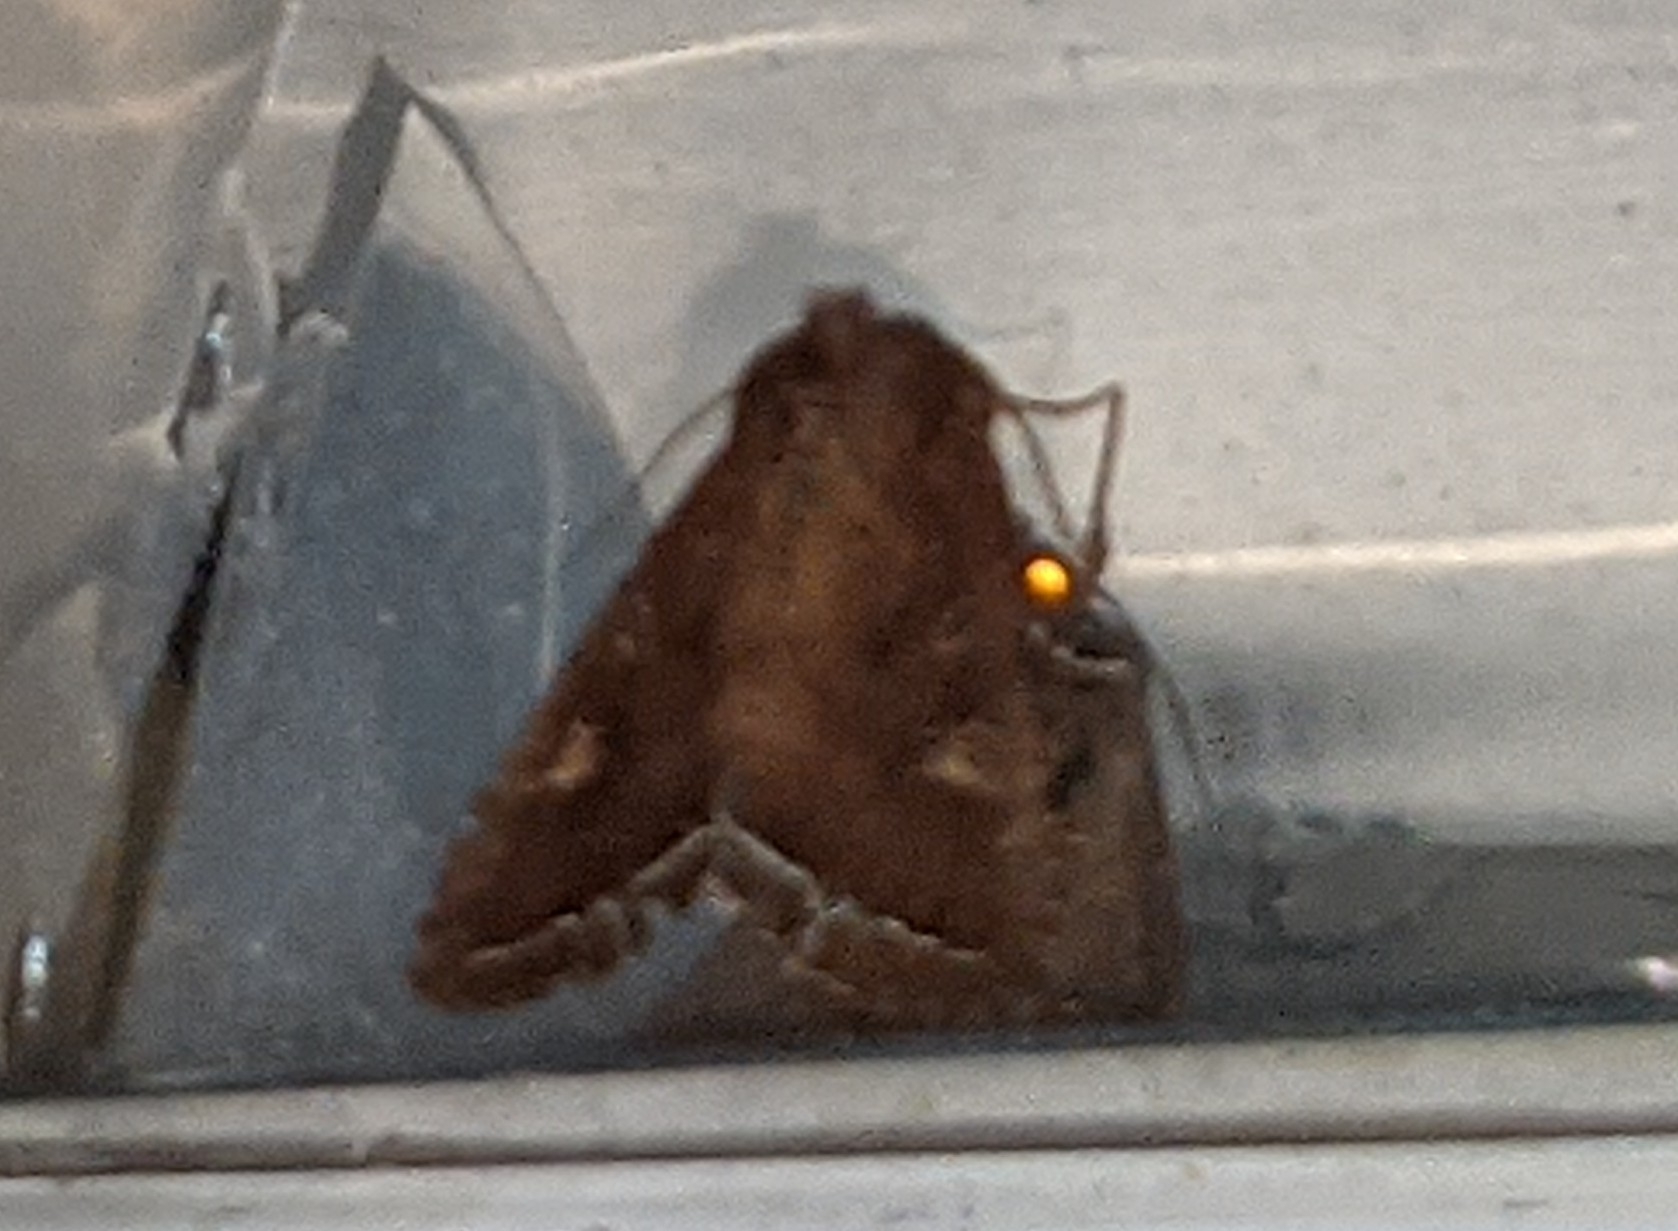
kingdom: Animalia
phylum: Arthropoda
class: Insecta
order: Lepidoptera
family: Noctuidae
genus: Lacanobia
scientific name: Lacanobia oleracea
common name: Bright-line brown-eye
